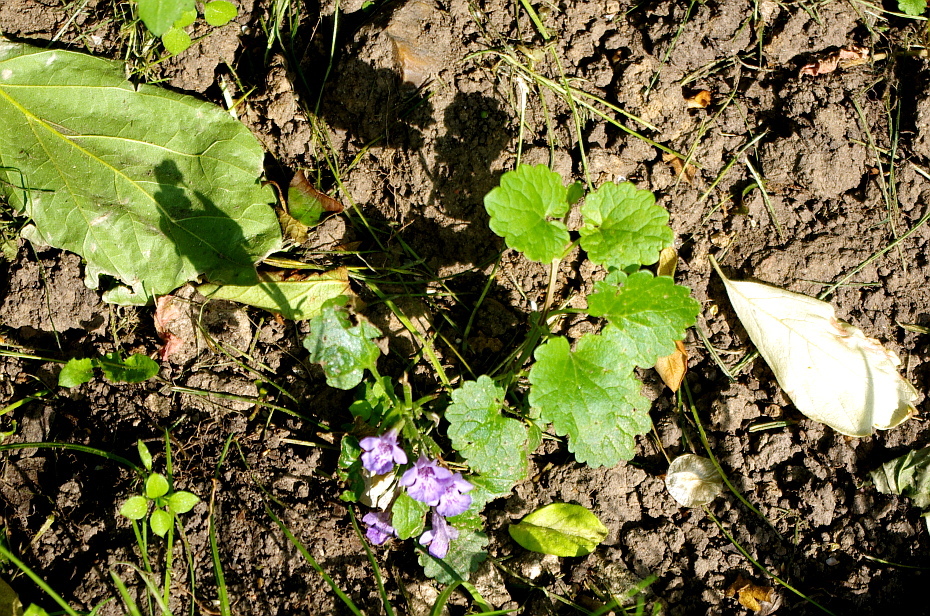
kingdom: Plantae
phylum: Tracheophyta
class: Magnoliopsida
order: Lamiales
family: Lamiaceae
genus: Glechoma
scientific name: Glechoma hederacea
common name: Ground ivy
